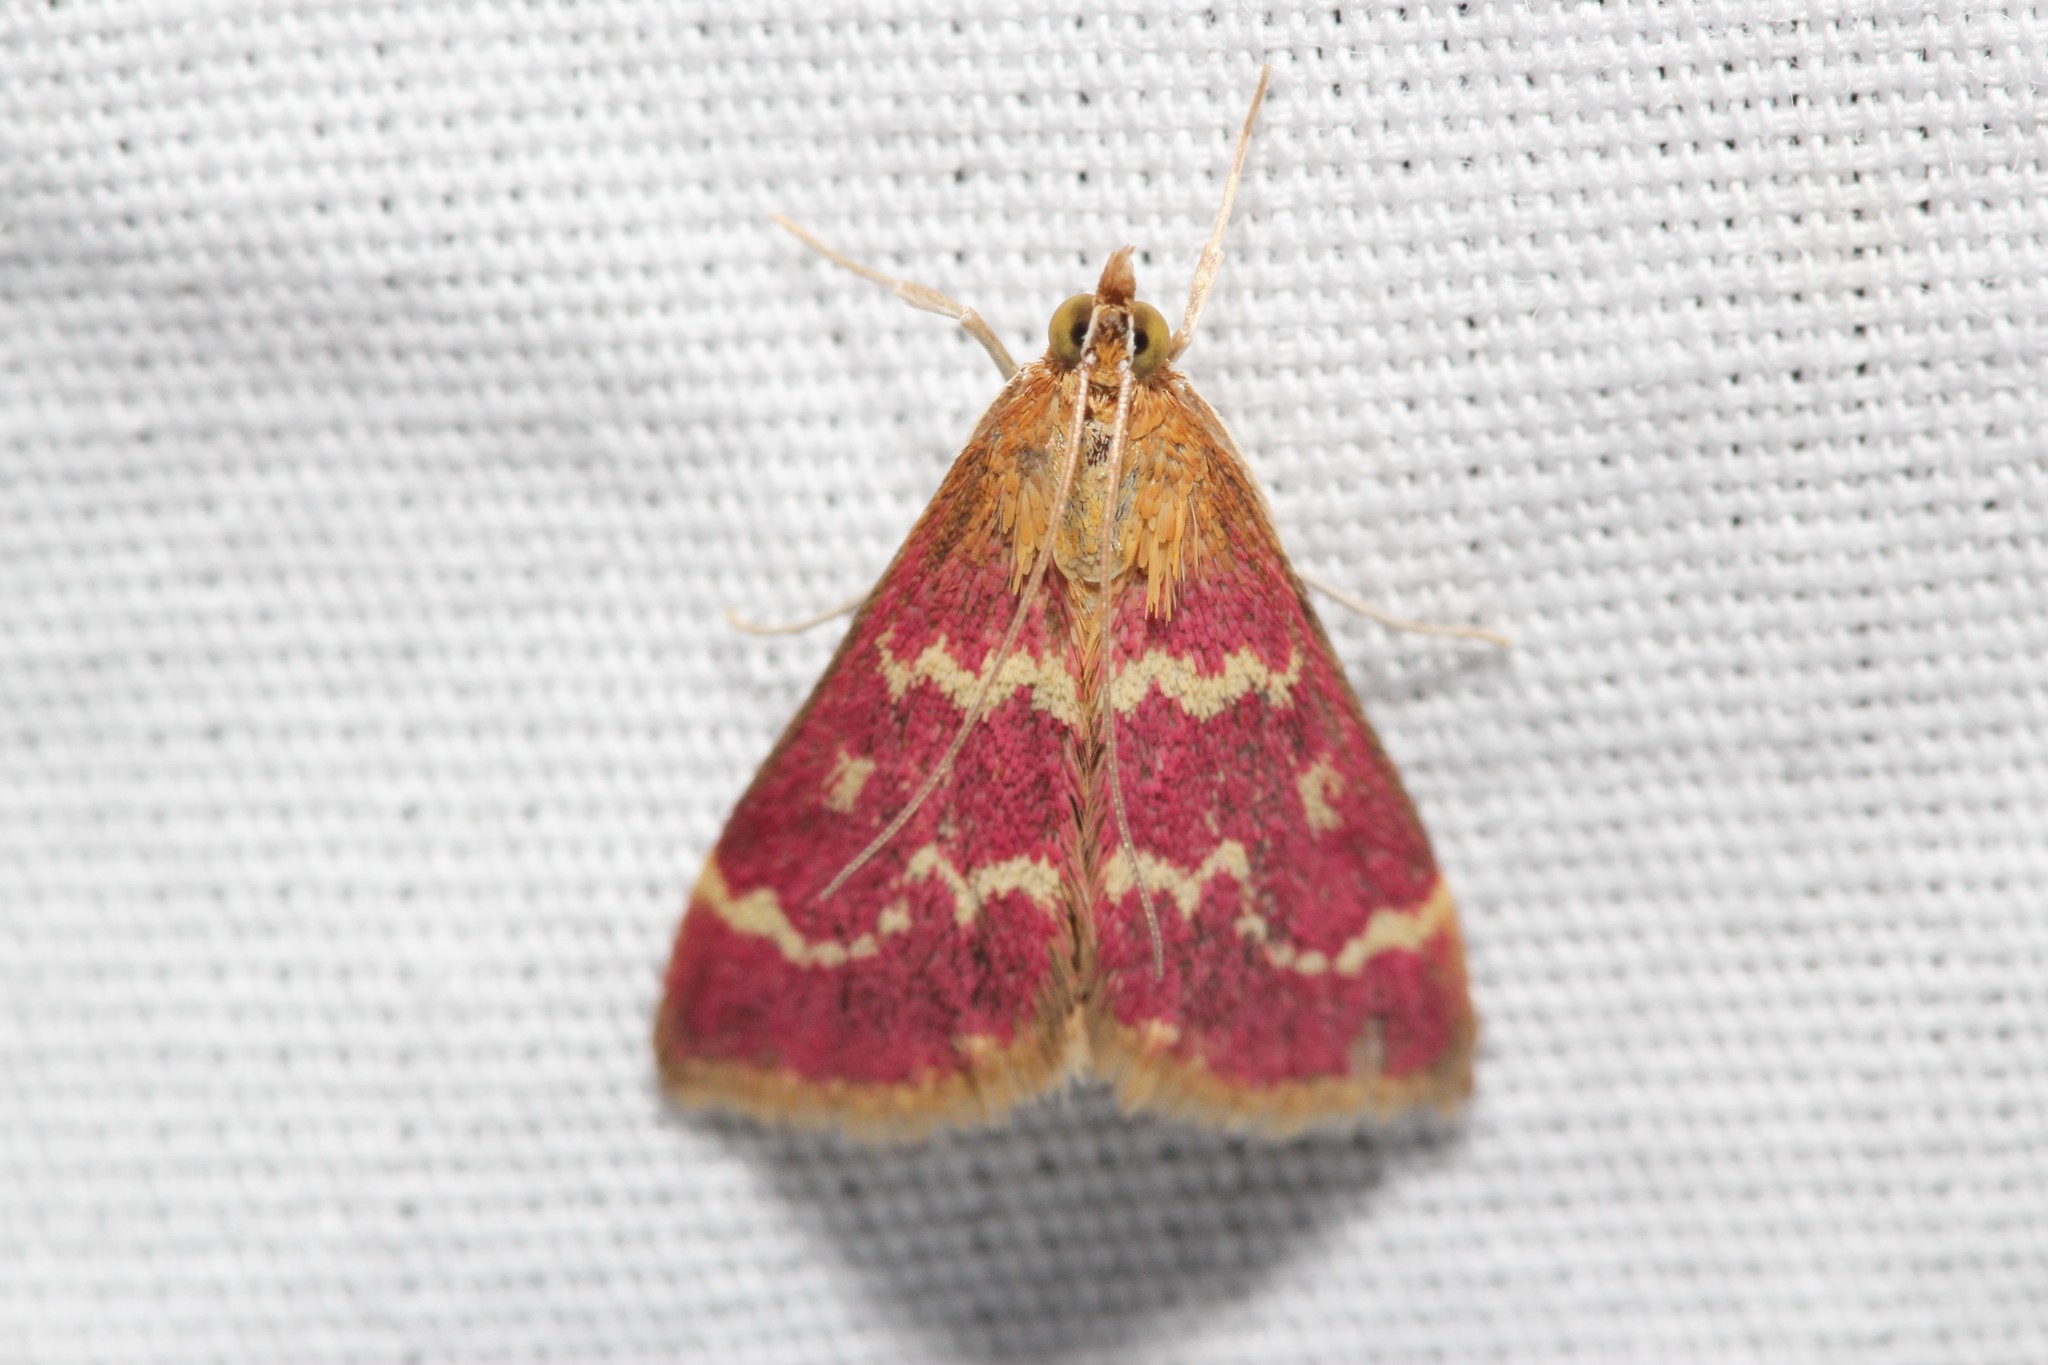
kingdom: Animalia
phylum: Arthropoda
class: Insecta
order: Lepidoptera
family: Crambidae
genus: Pyrausta
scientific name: Pyrausta signatalis
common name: Raspberry pyrausta moth
